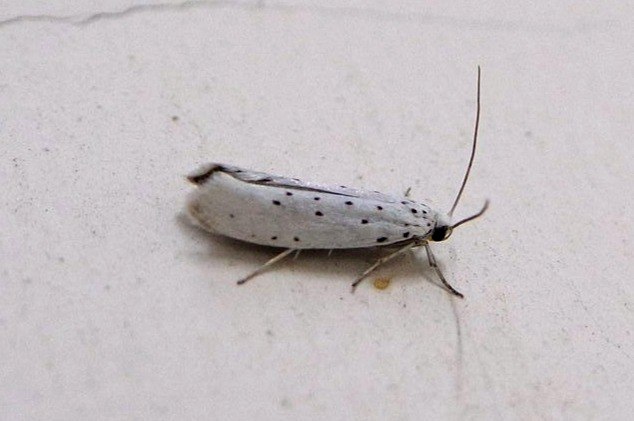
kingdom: Animalia
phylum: Arthropoda
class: Insecta
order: Lepidoptera
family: Yponomeutidae
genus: Yponomeuta
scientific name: Yponomeuta padella
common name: Orchard ermine
